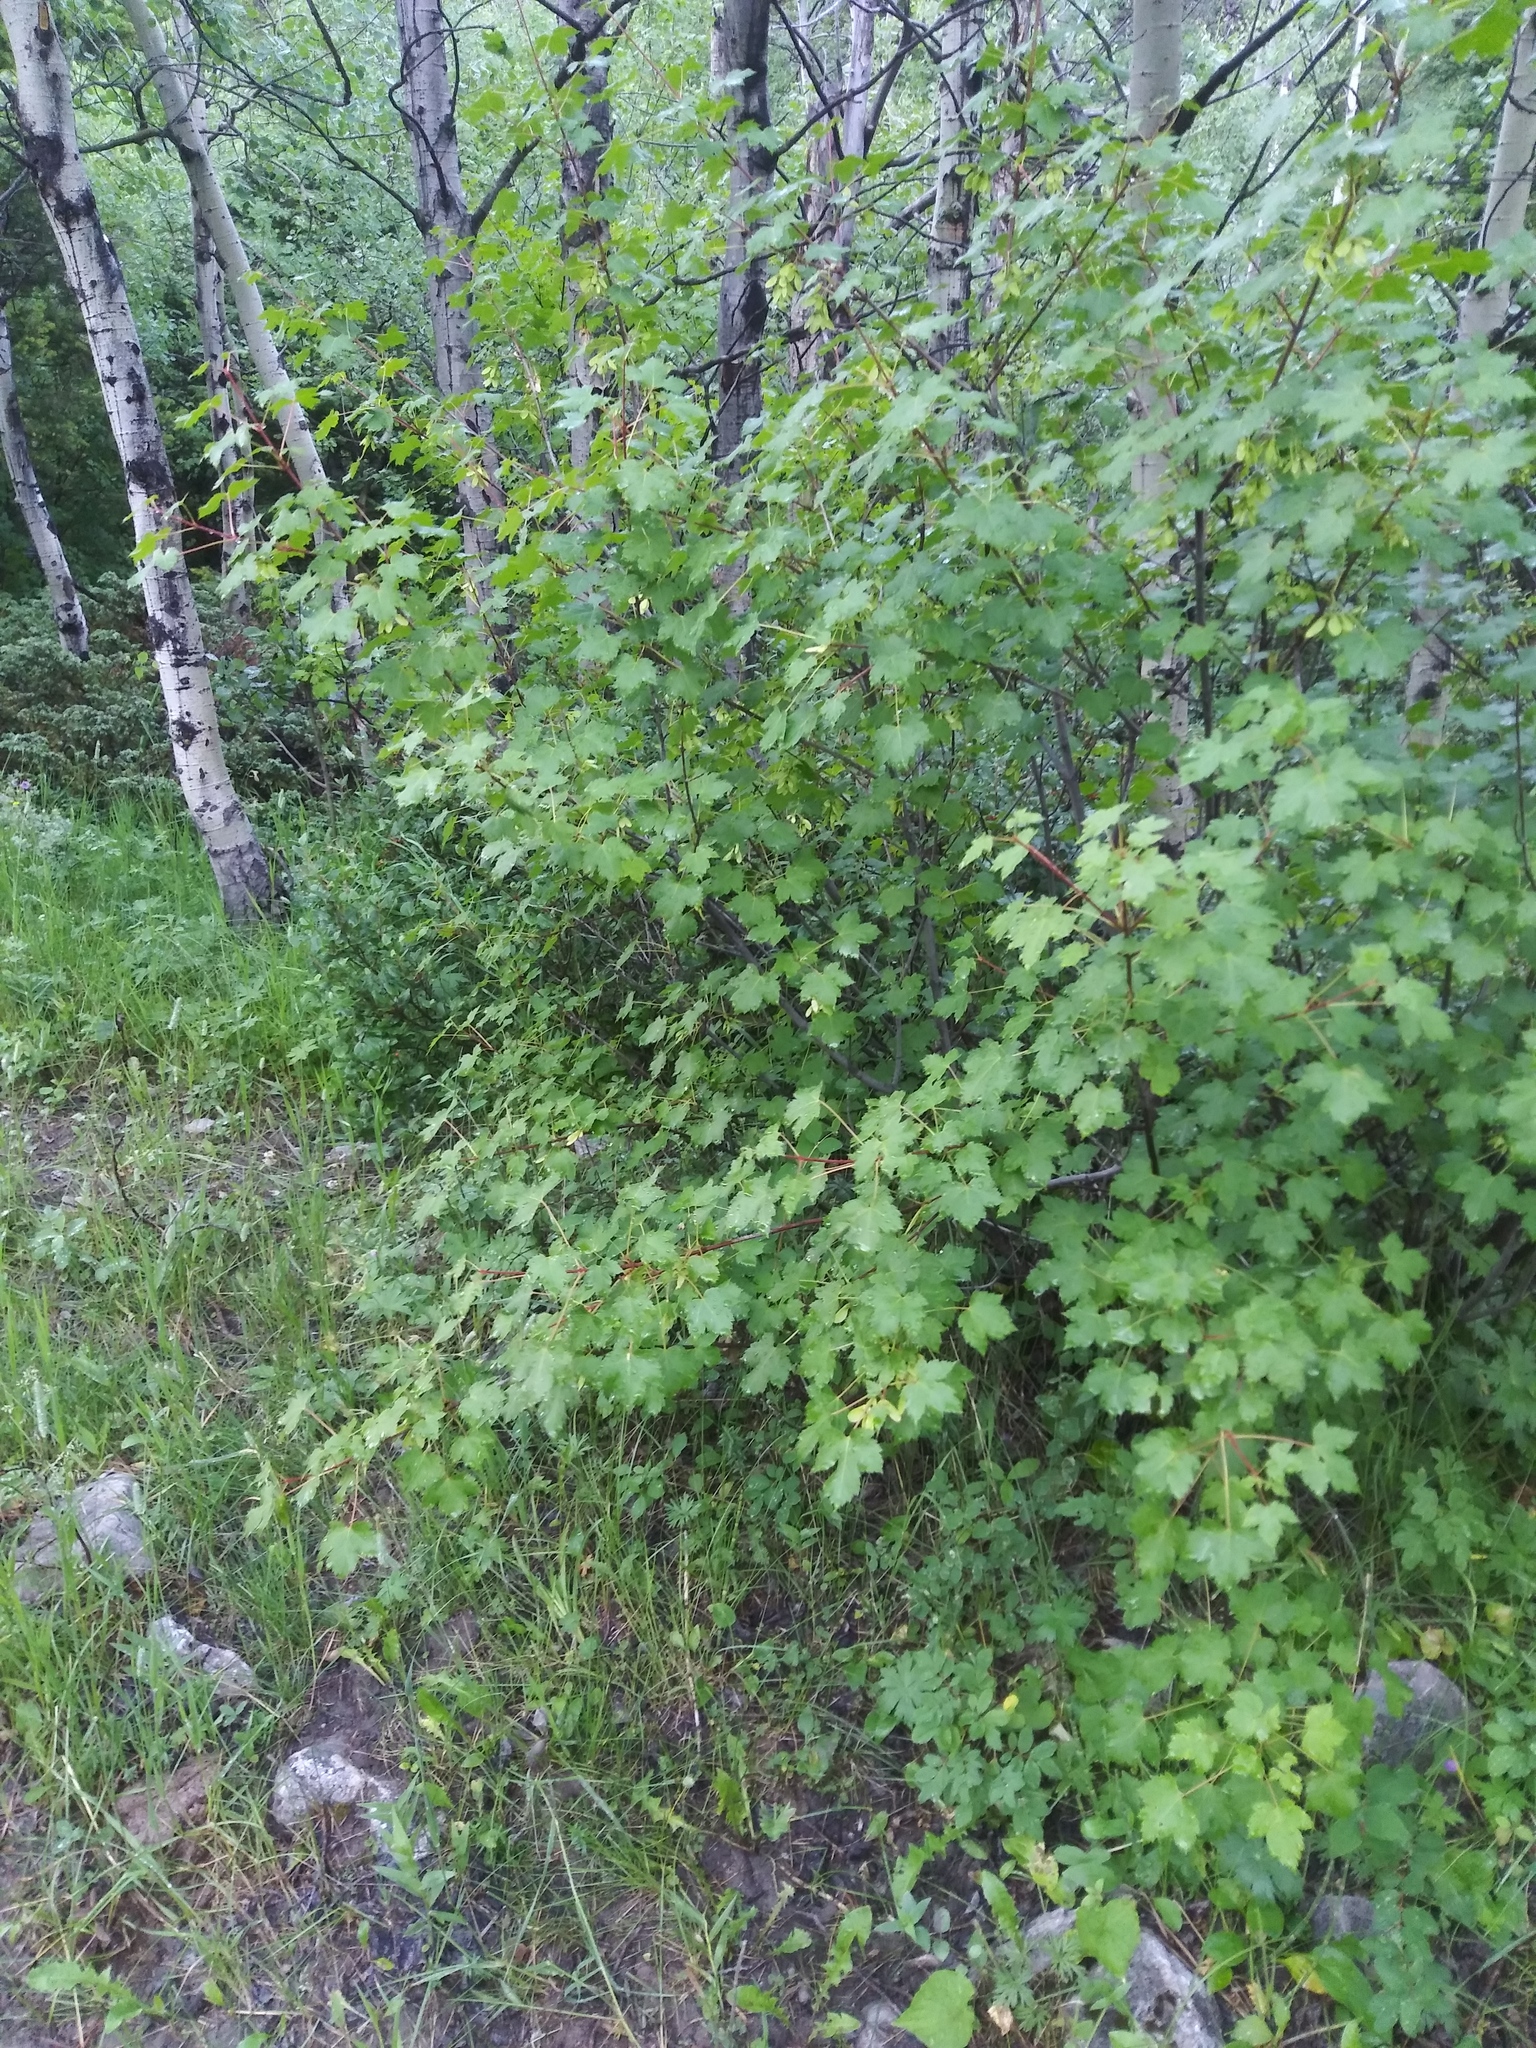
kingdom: Plantae
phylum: Tracheophyta
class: Magnoliopsida
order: Sapindales
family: Sapindaceae
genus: Acer
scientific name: Acer glabrum
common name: Rocky mountain maple
